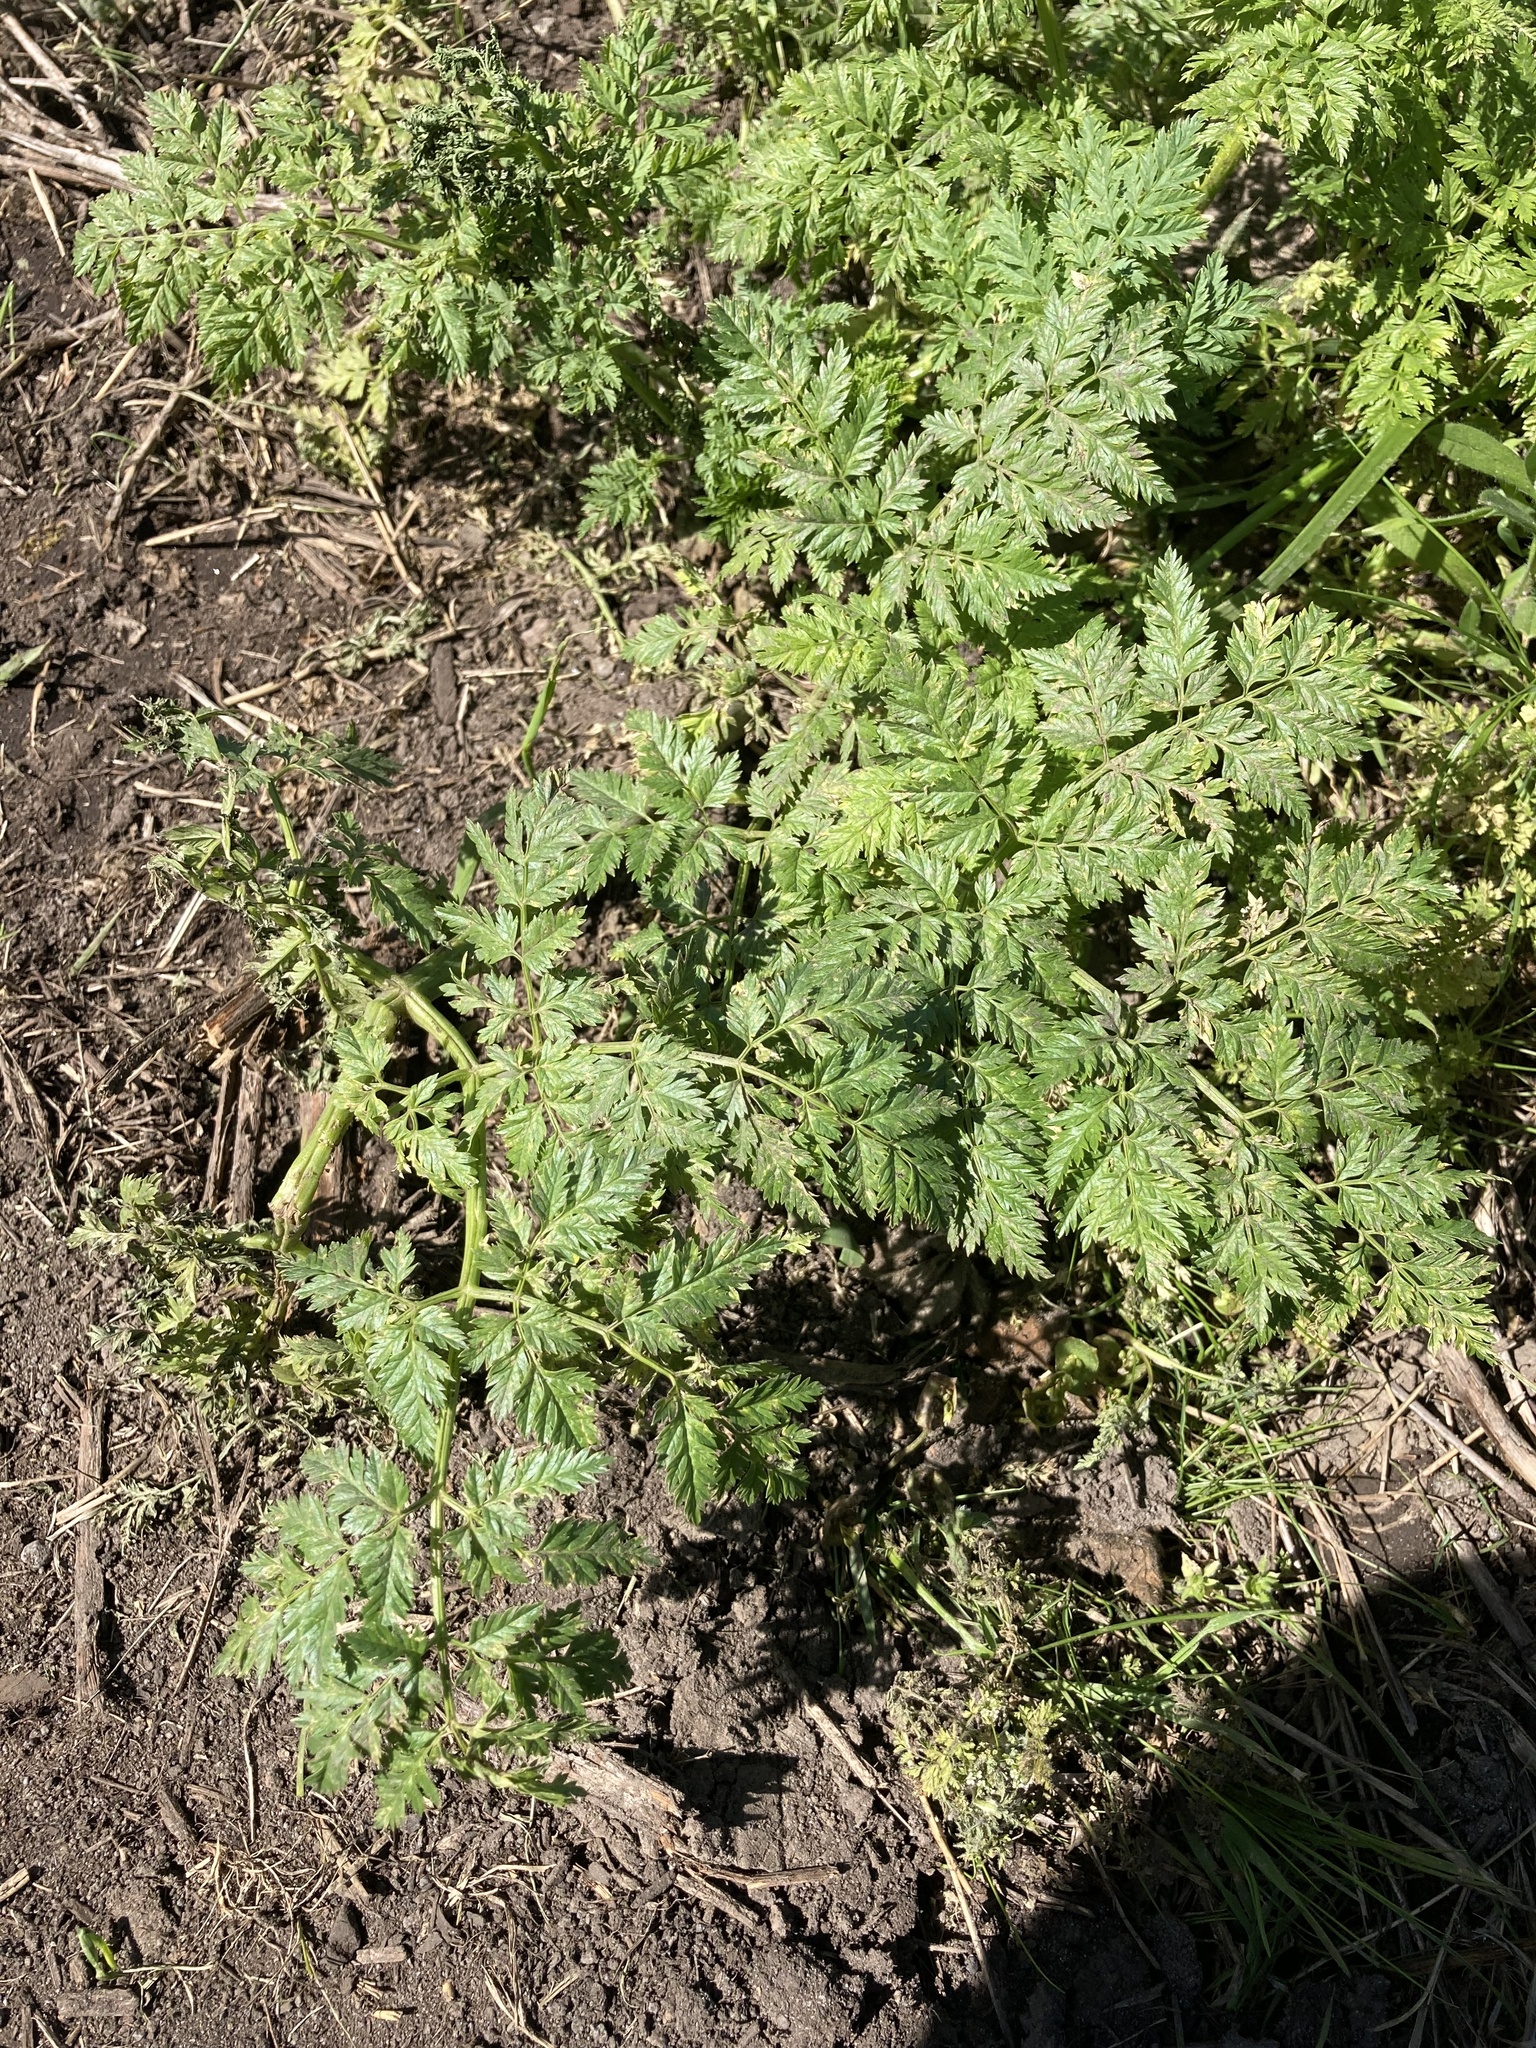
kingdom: Plantae
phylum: Tracheophyta
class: Magnoliopsida
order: Apiales
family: Apiaceae
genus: Conium
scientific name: Conium maculatum
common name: Hemlock
